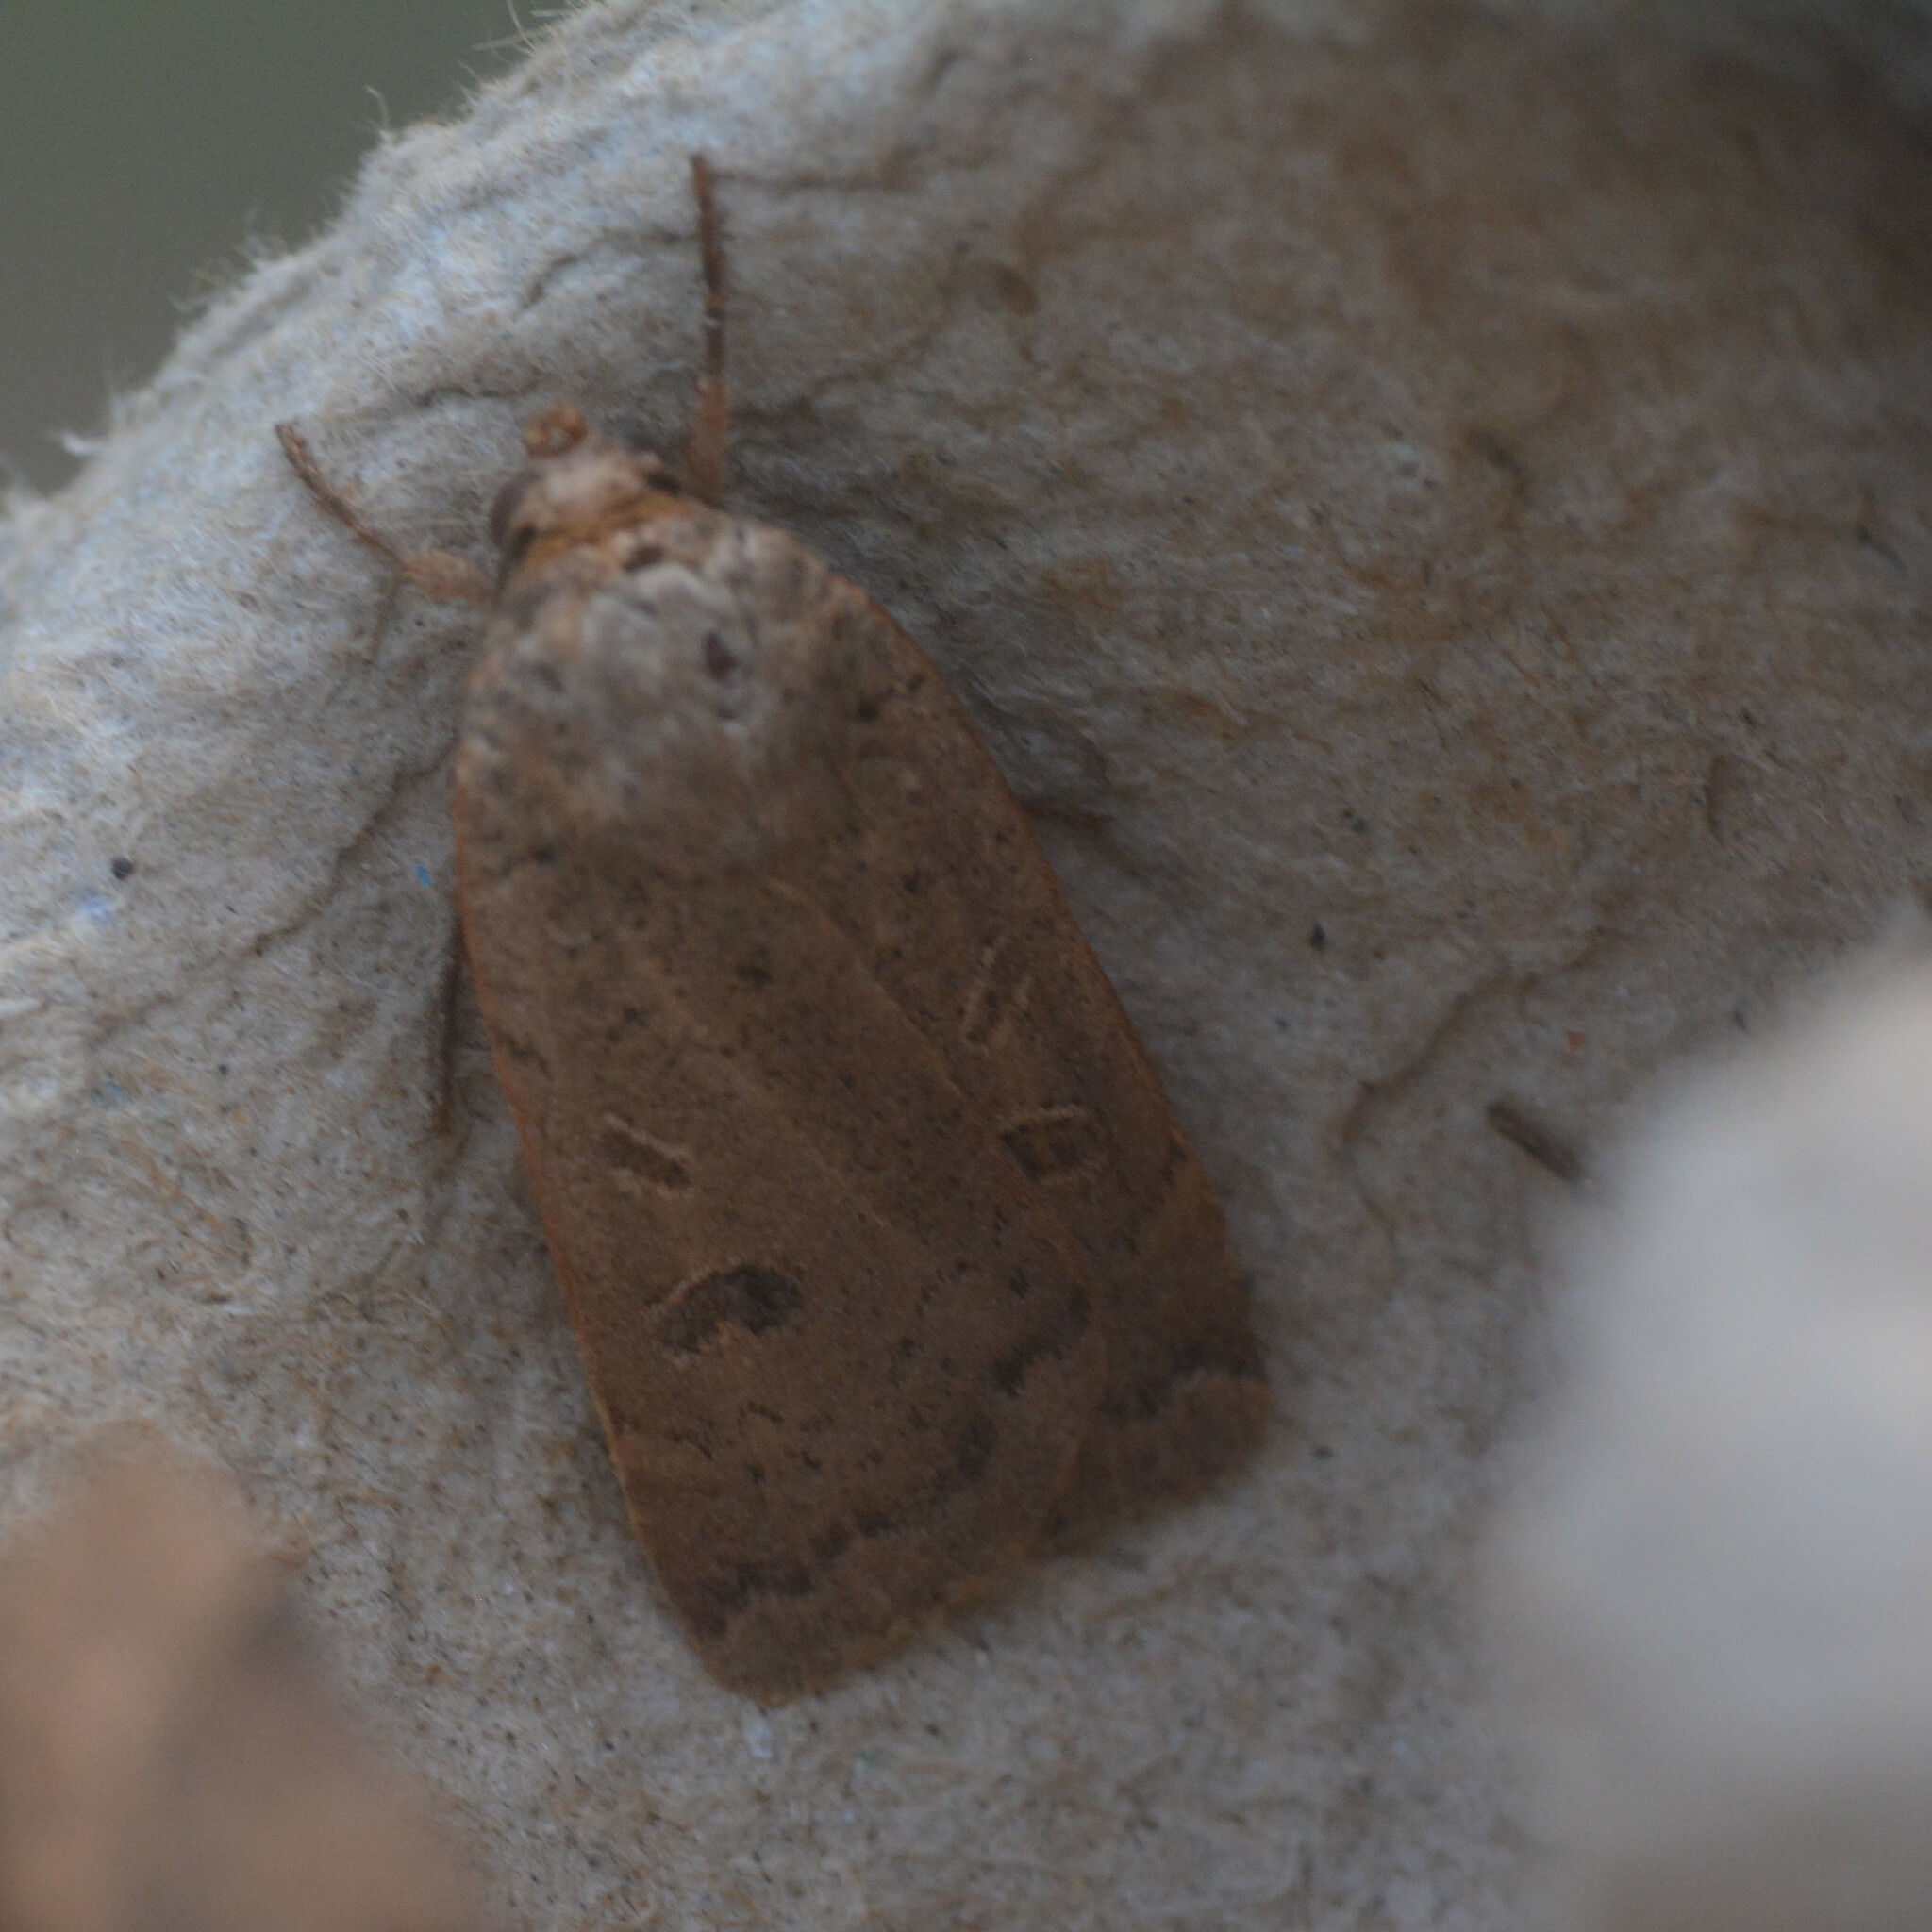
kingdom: Animalia
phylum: Arthropoda
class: Insecta
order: Lepidoptera
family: Noctuidae
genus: Noctua
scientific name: Noctua comes
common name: Lesser yellow underwing
